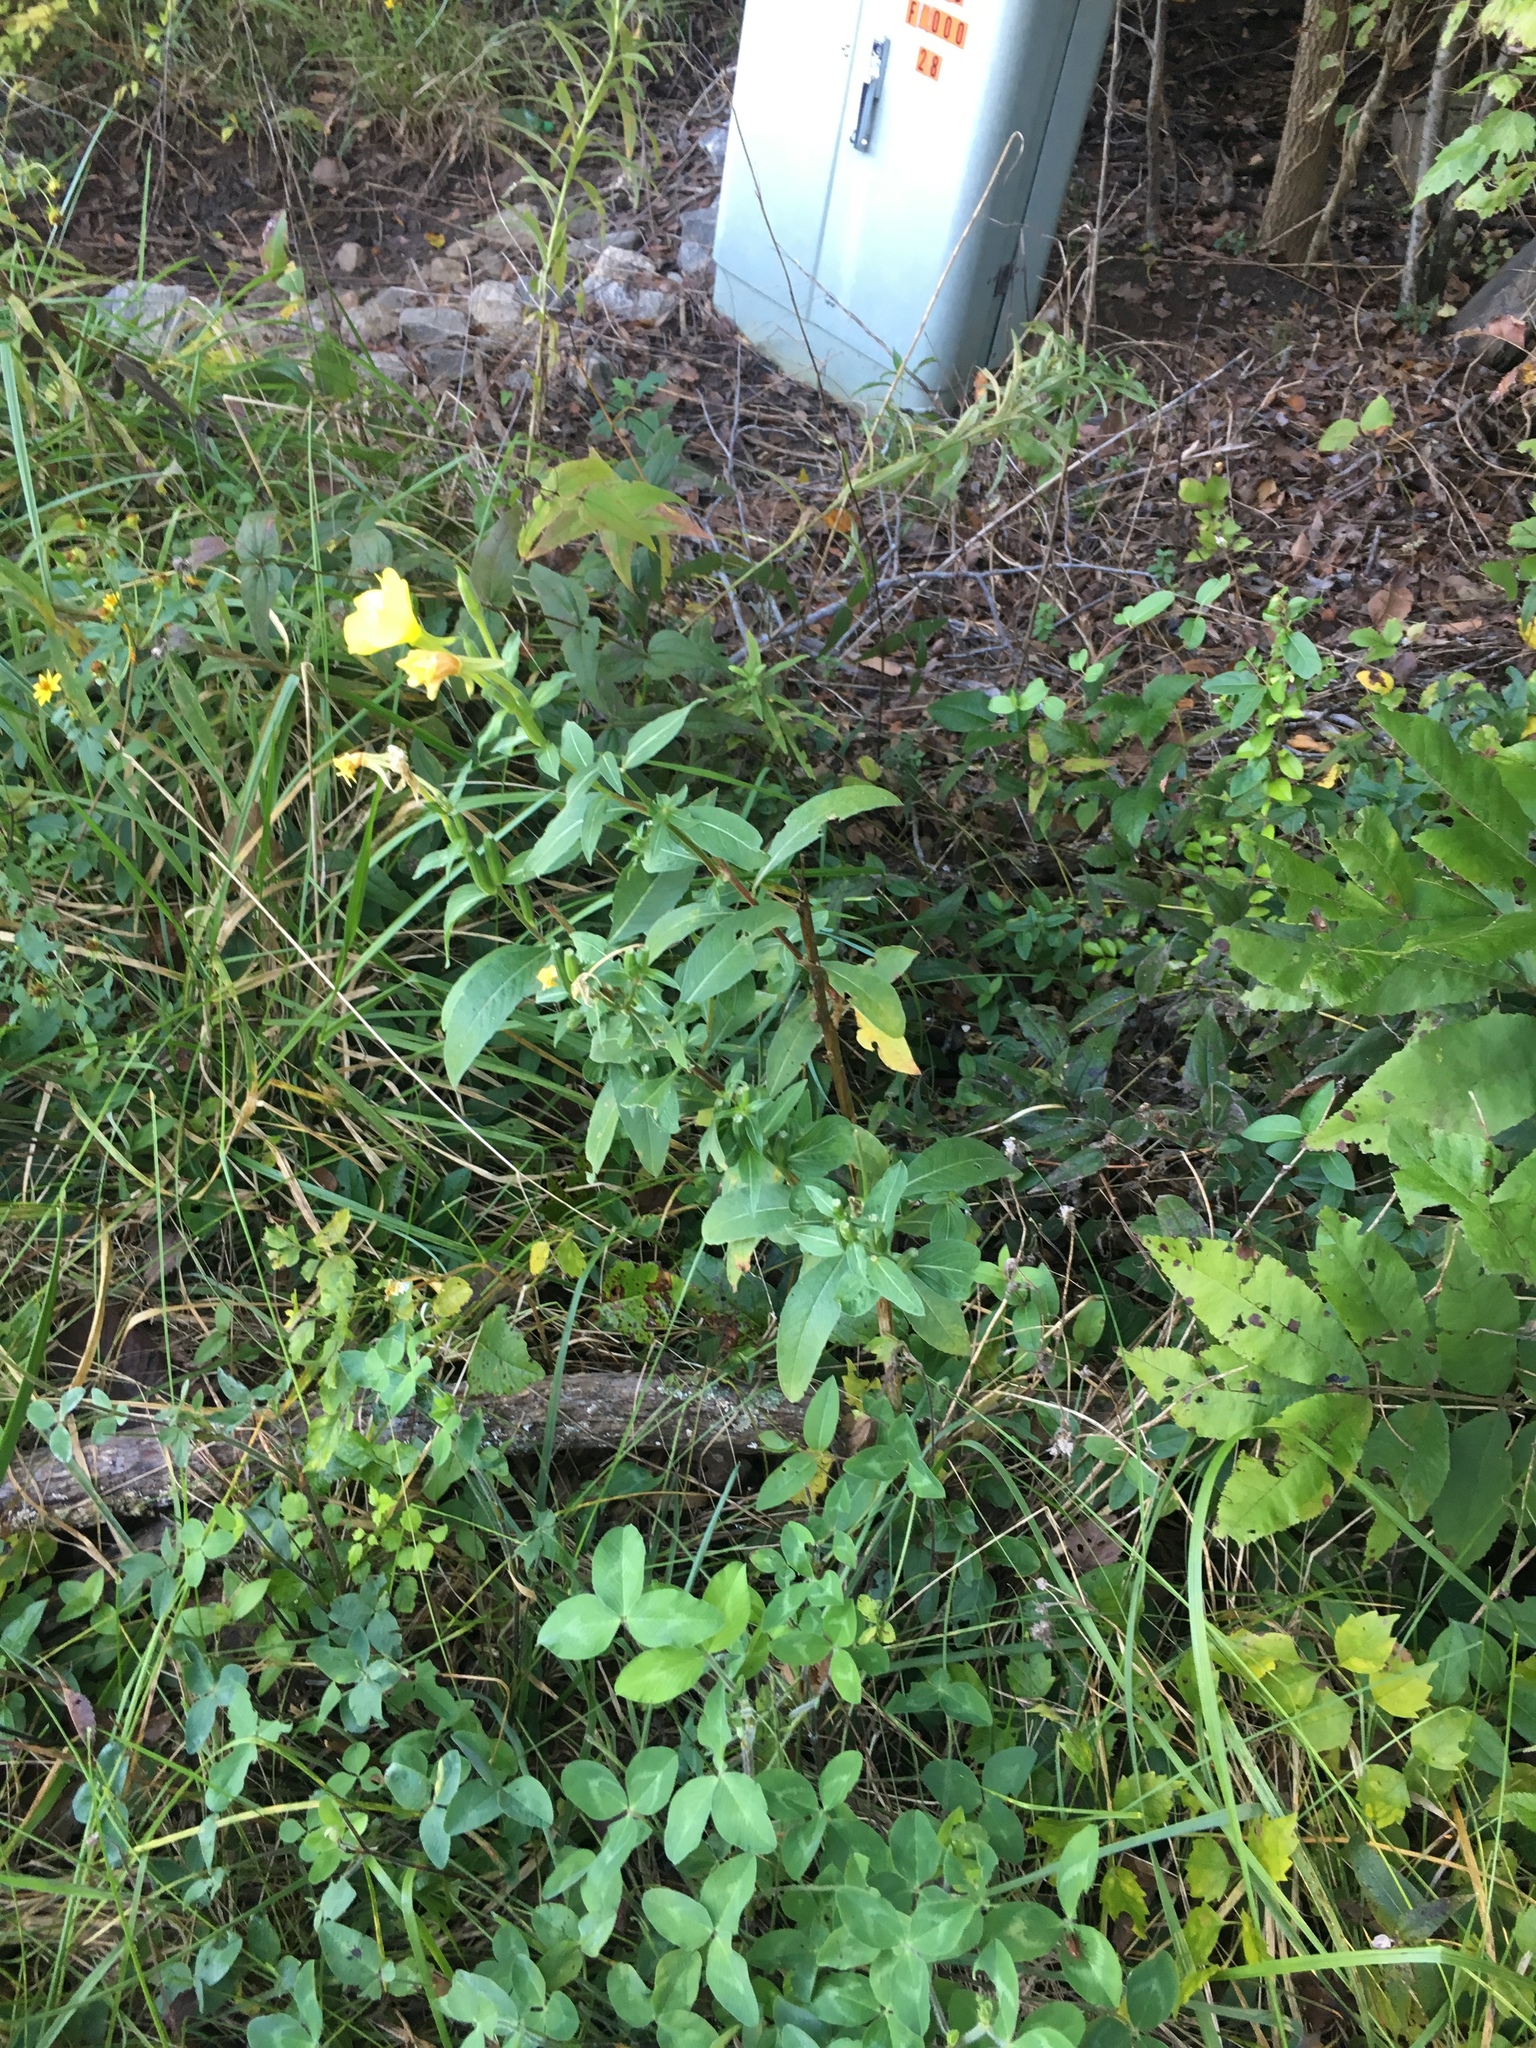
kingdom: Plantae
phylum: Tracheophyta
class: Magnoliopsida
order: Myrtales
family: Onagraceae
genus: Oenothera
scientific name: Oenothera biennis
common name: Common evening-primrose
